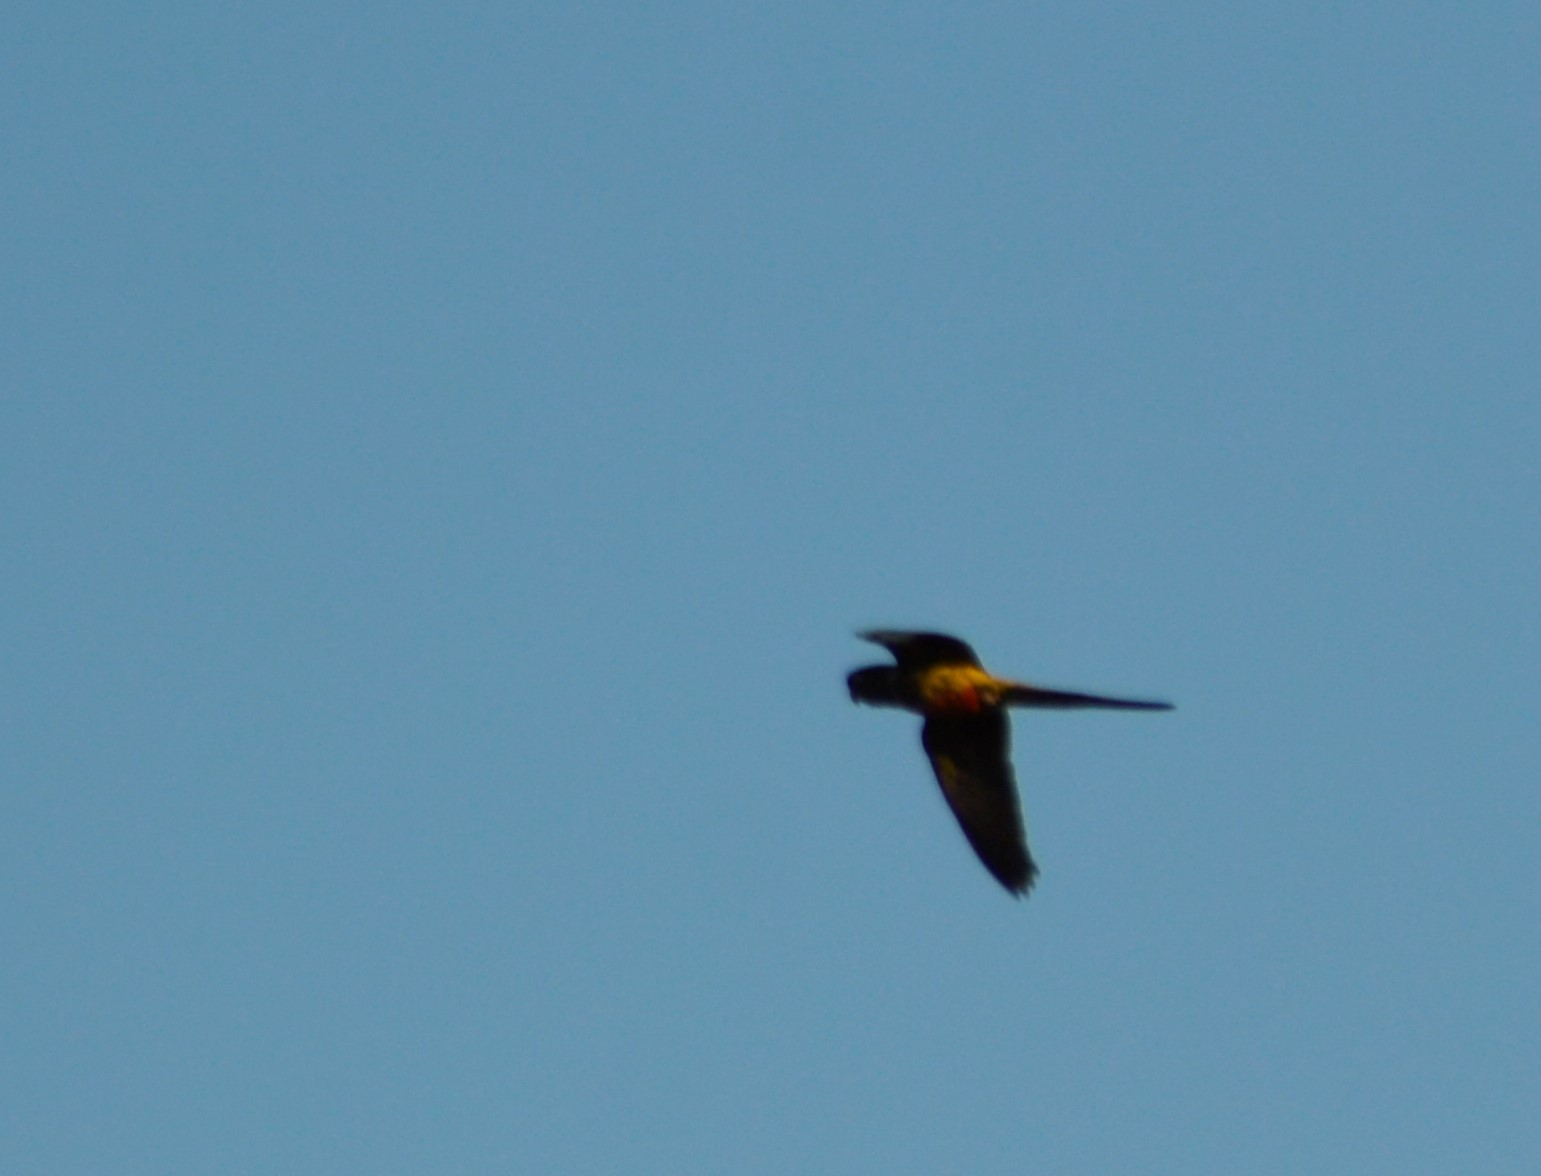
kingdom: Animalia
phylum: Chordata
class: Aves
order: Psittaciformes
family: Psittacidae
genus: Cyanoliseus
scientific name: Cyanoliseus patagonus
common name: Burrowing parrot
